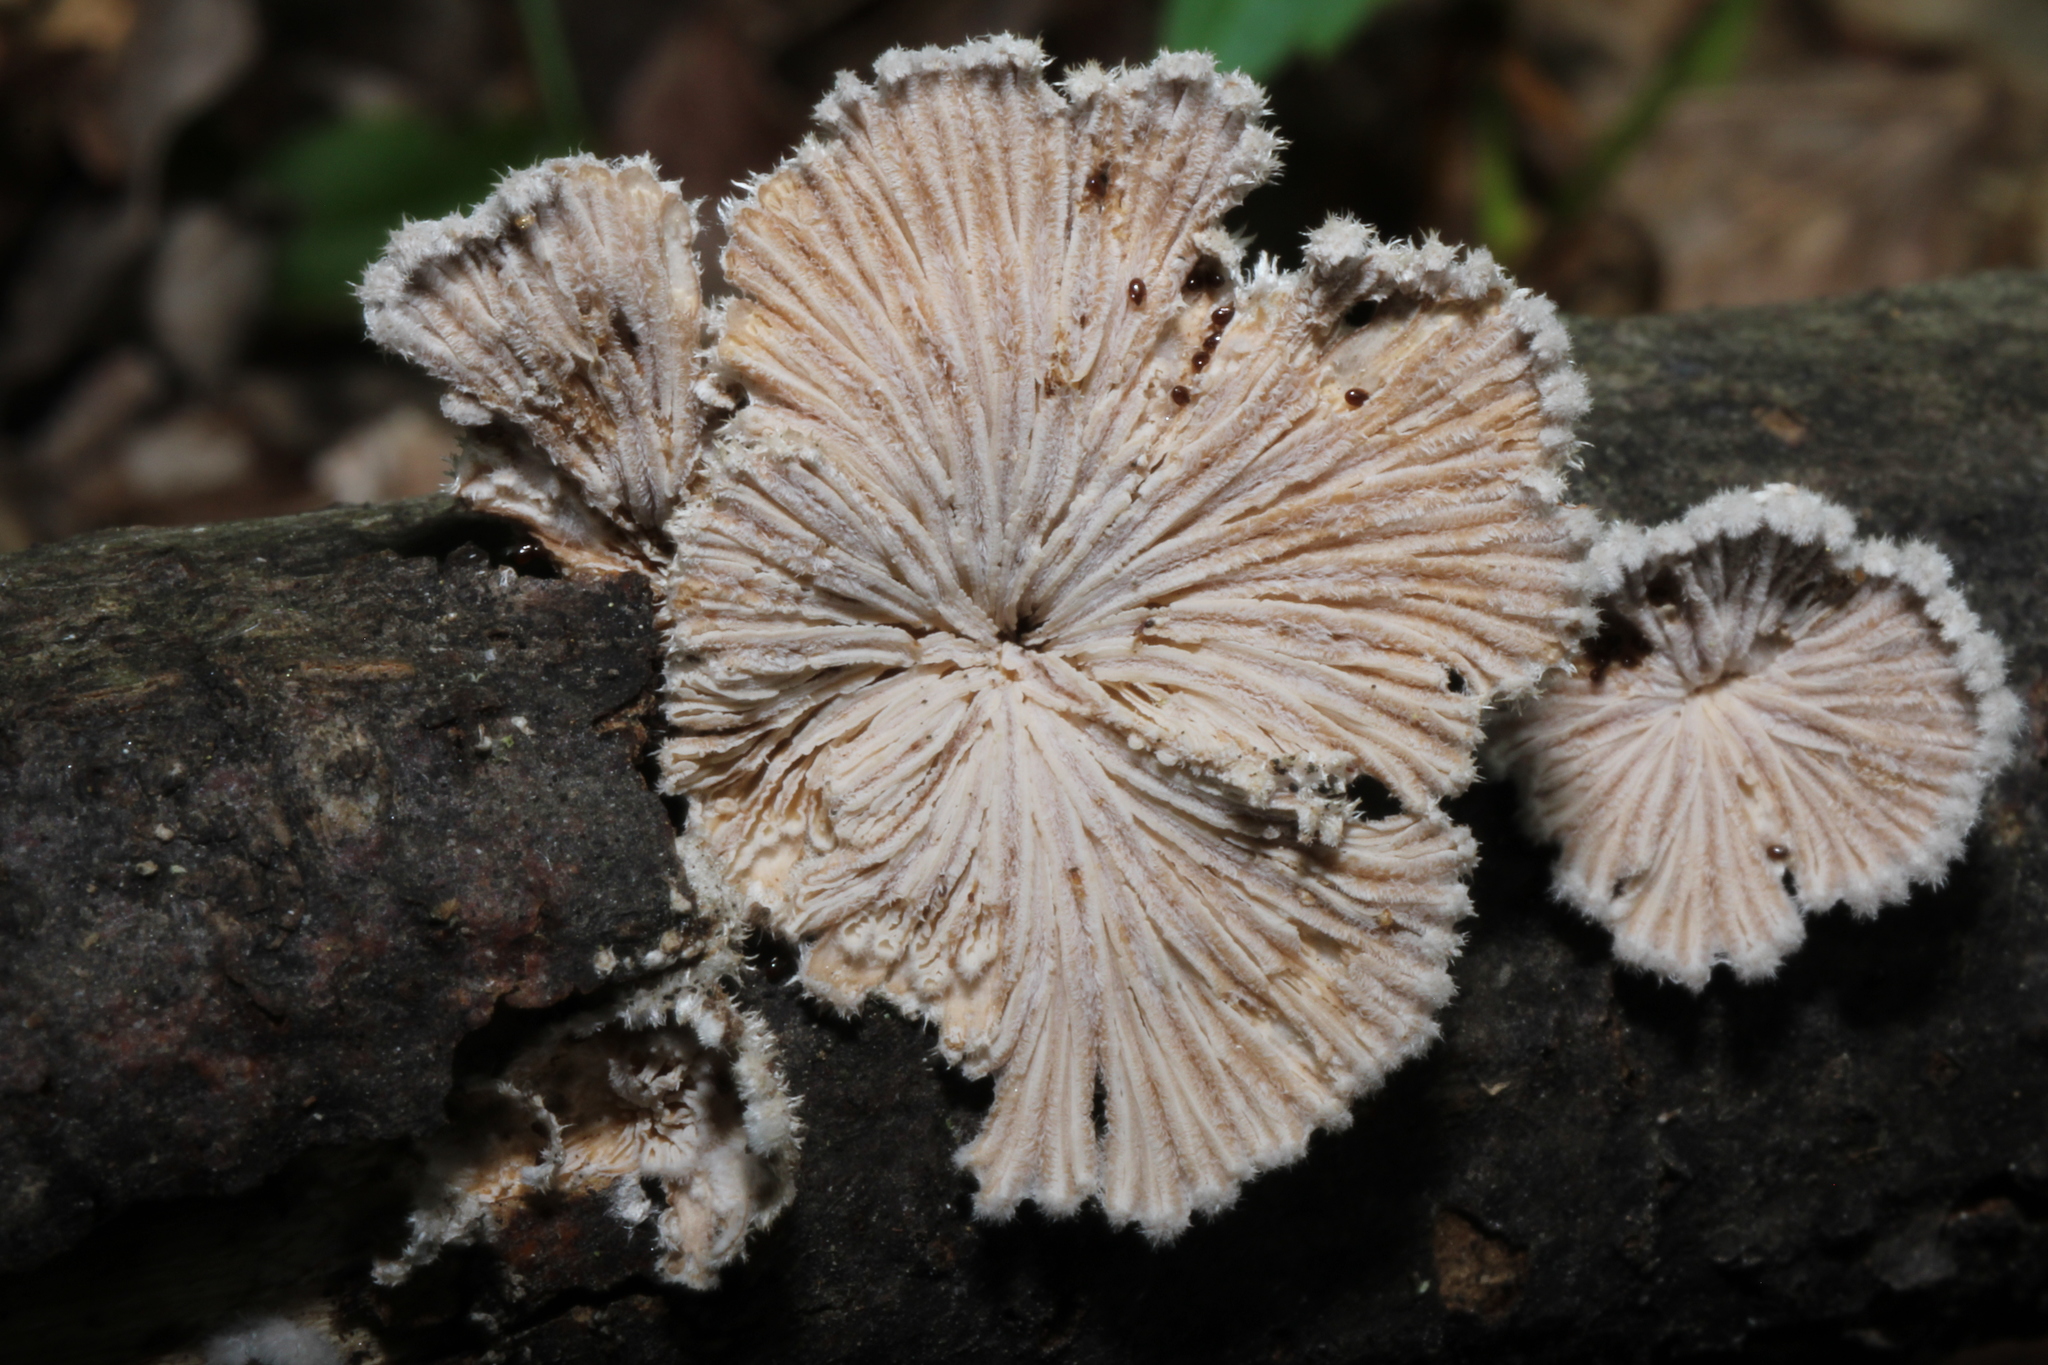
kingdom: Fungi
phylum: Basidiomycota
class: Agaricomycetes
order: Agaricales
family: Schizophyllaceae
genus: Schizophyllum
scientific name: Schizophyllum commune
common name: Common porecrust
